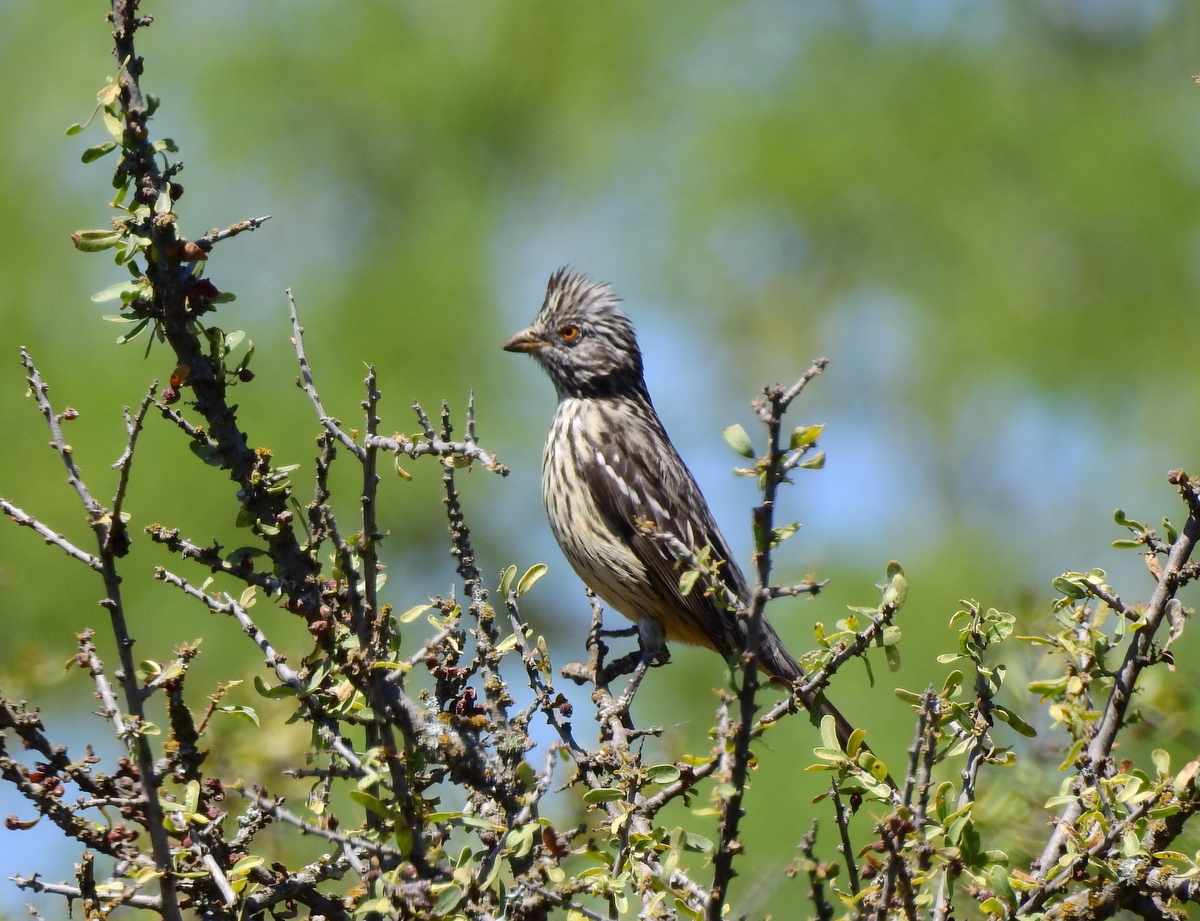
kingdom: Animalia
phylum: Chordata
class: Aves
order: Passeriformes
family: Cotingidae
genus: Phytotoma
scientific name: Phytotoma rutila
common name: White-tipped plantcutter
